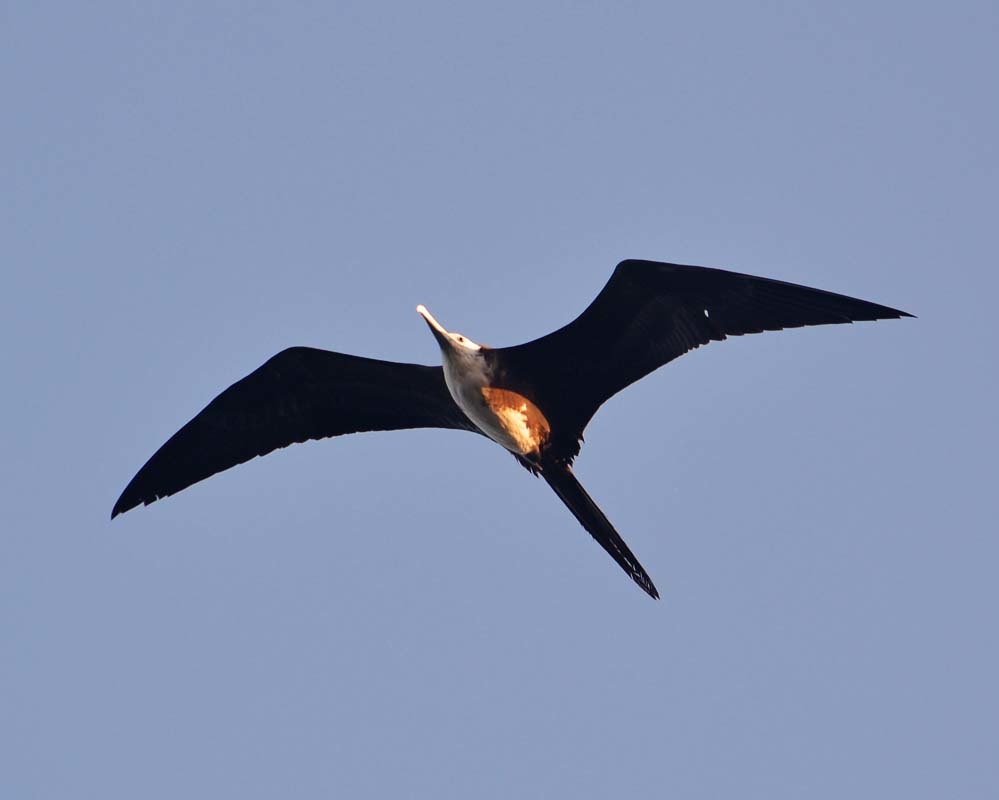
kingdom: Animalia
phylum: Chordata
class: Aves
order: Suliformes
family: Fregatidae
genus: Fregata
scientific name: Fregata magnificens
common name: Magnificent frigatebird
